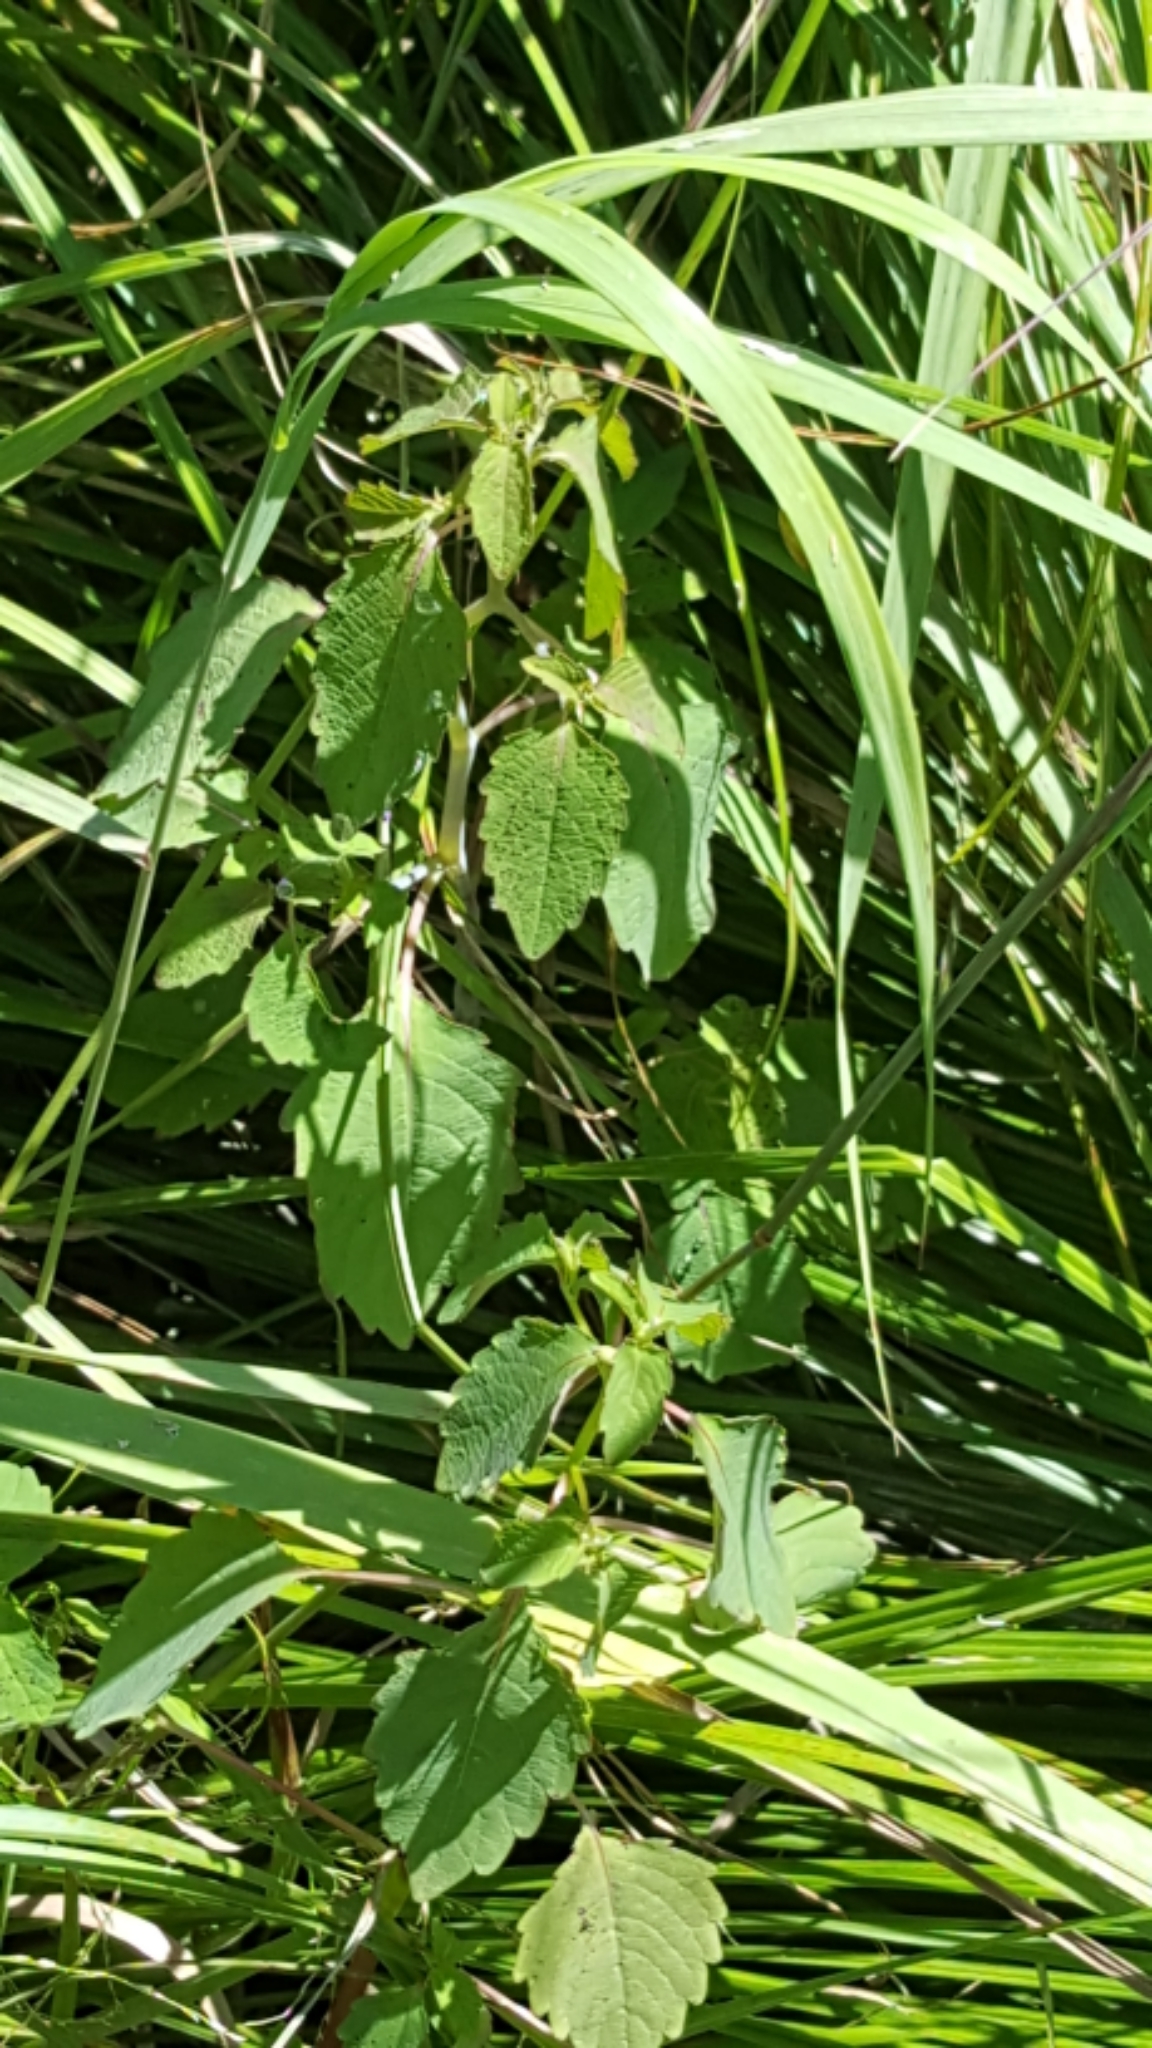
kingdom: Plantae
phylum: Tracheophyta
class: Magnoliopsida
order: Ericales
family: Balsaminaceae
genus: Impatiens
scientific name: Impatiens capensis
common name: Orange balsam
